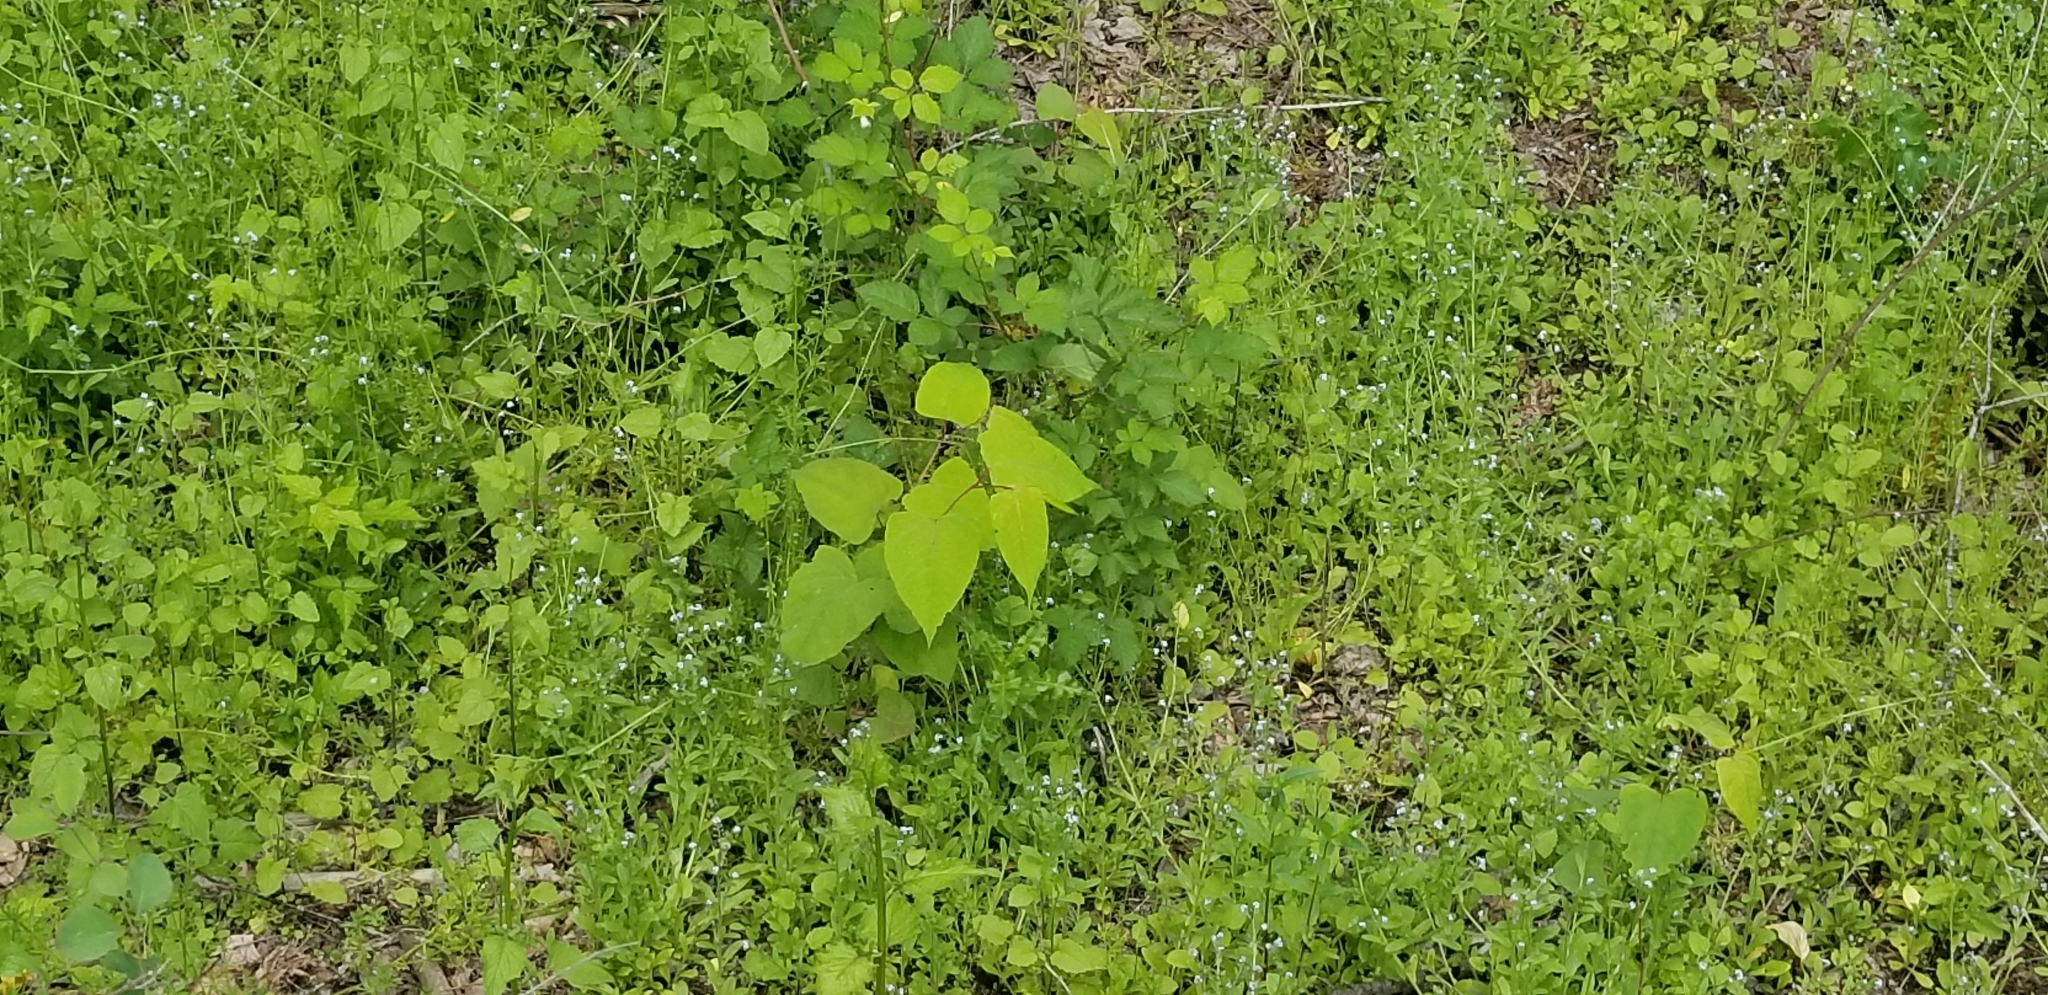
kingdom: Plantae
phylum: Tracheophyta
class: Magnoliopsida
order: Caryophyllales
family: Polygonaceae
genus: Reynoutria
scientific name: Reynoutria bohemica
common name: Bohemian knotweed
